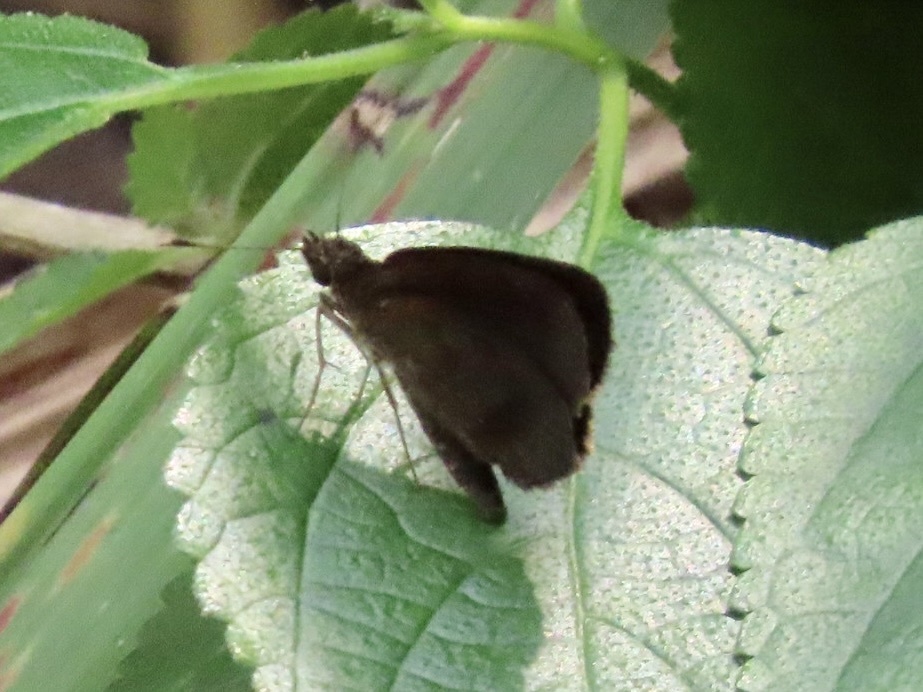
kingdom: Animalia
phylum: Arthropoda
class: Insecta
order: Lepidoptera
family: Hesperiidae
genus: Astictopterus
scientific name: Astictopterus jama
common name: Forest hopper
